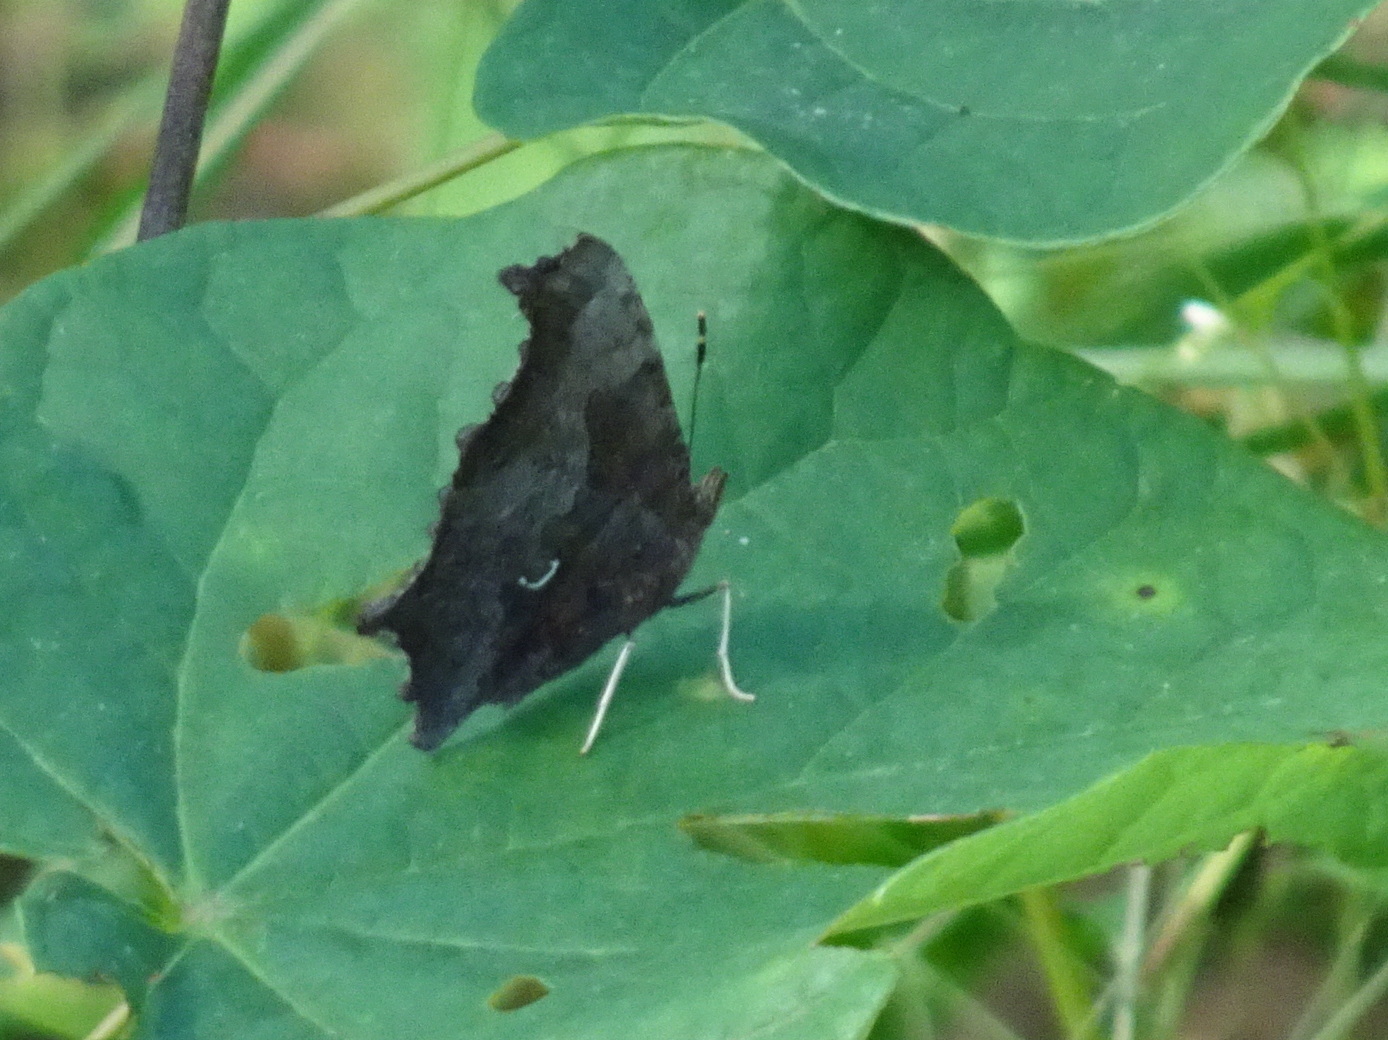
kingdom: Animalia
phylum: Arthropoda
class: Insecta
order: Lepidoptera
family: Nymphalidae
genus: Polygonia
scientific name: Polygonia comma
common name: Eastern comma
